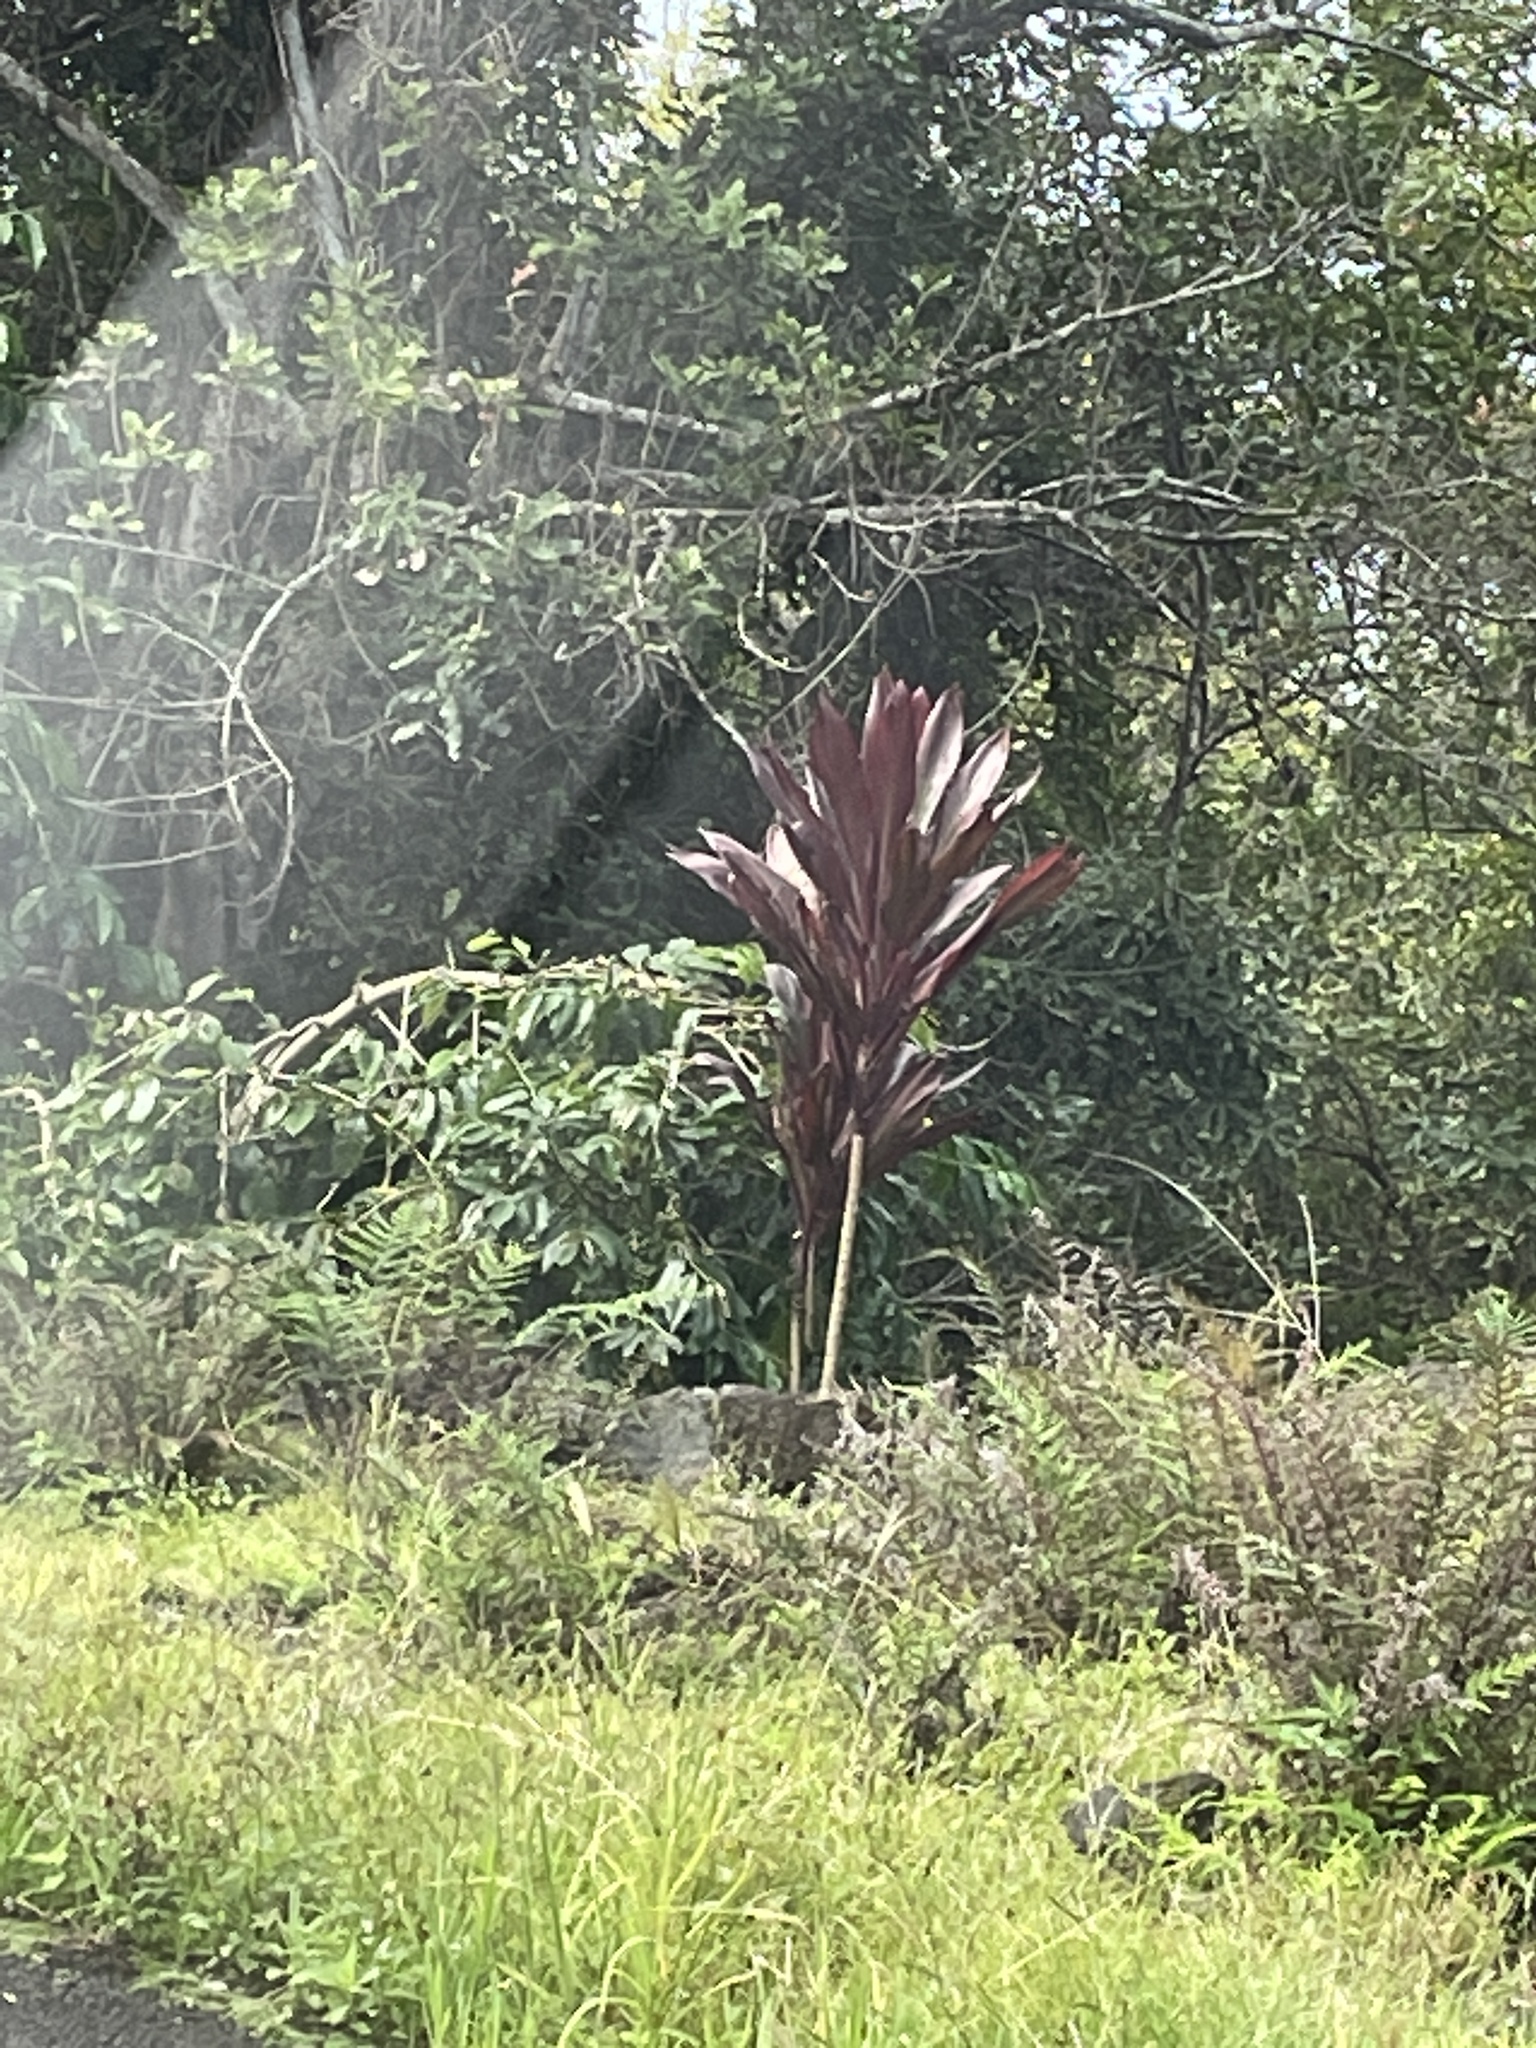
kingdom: Plantae
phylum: Tracheophyta
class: Liliopsida
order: Asparagales
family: Asparagaceae
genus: Cordyline
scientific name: Cordyline fruticosa
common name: Good-luck-plant
